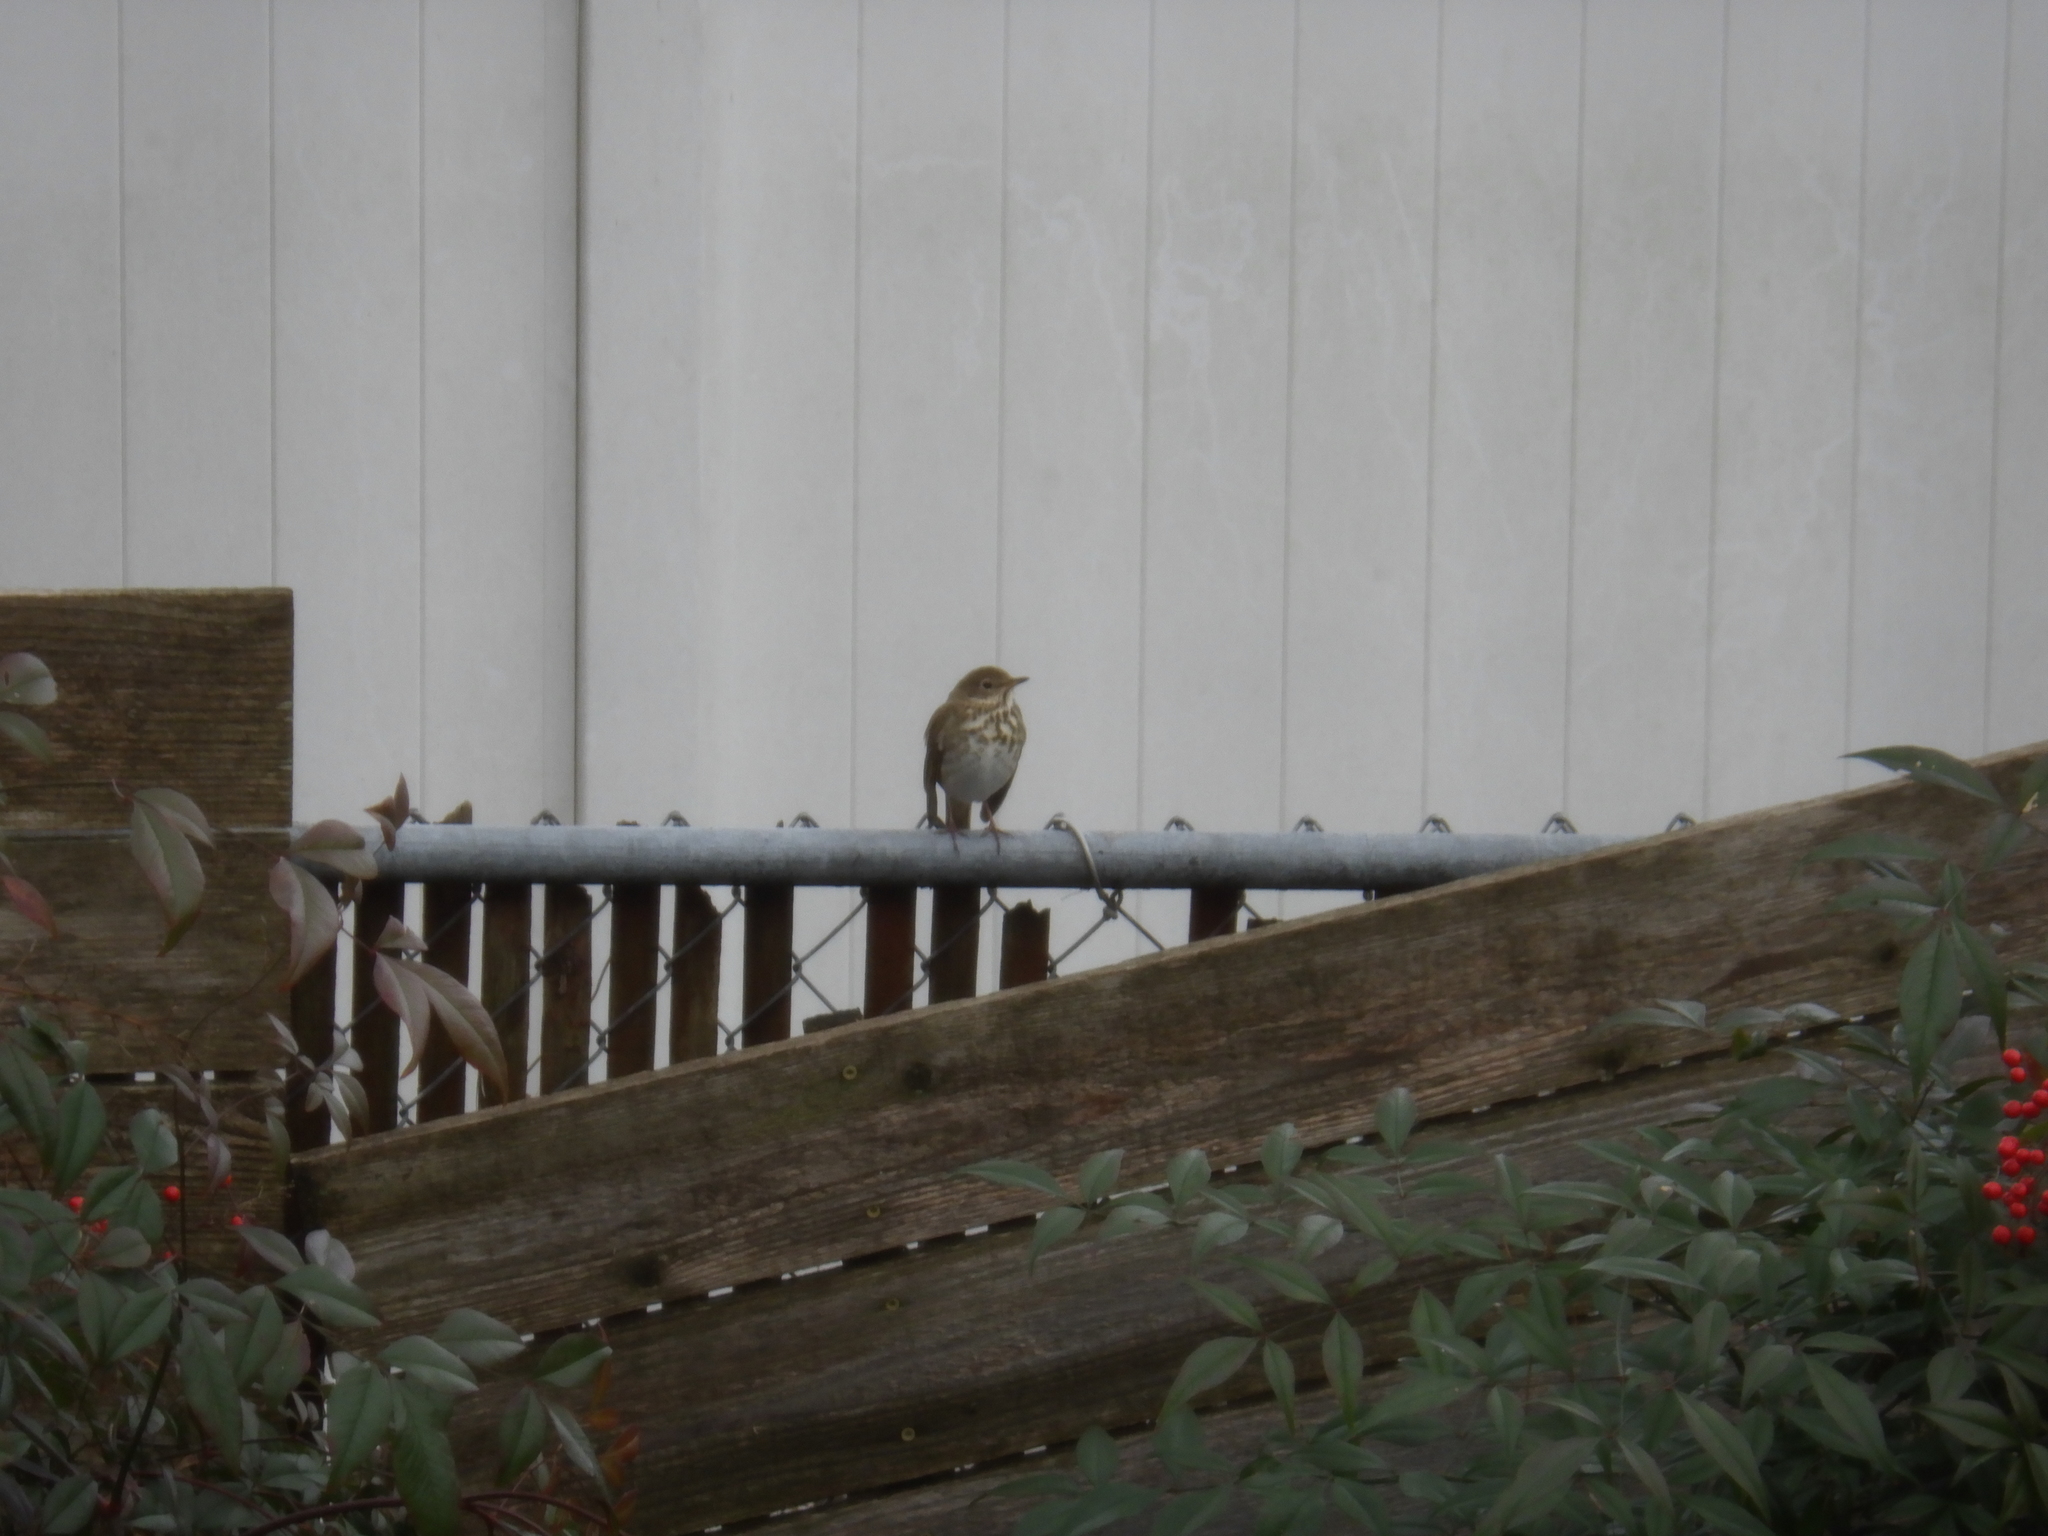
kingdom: Animalia
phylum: Chordata
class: Aves
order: Passeriformes
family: Turdidae
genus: Catharus
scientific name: Catharus guttatus
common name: Hermit thrush
